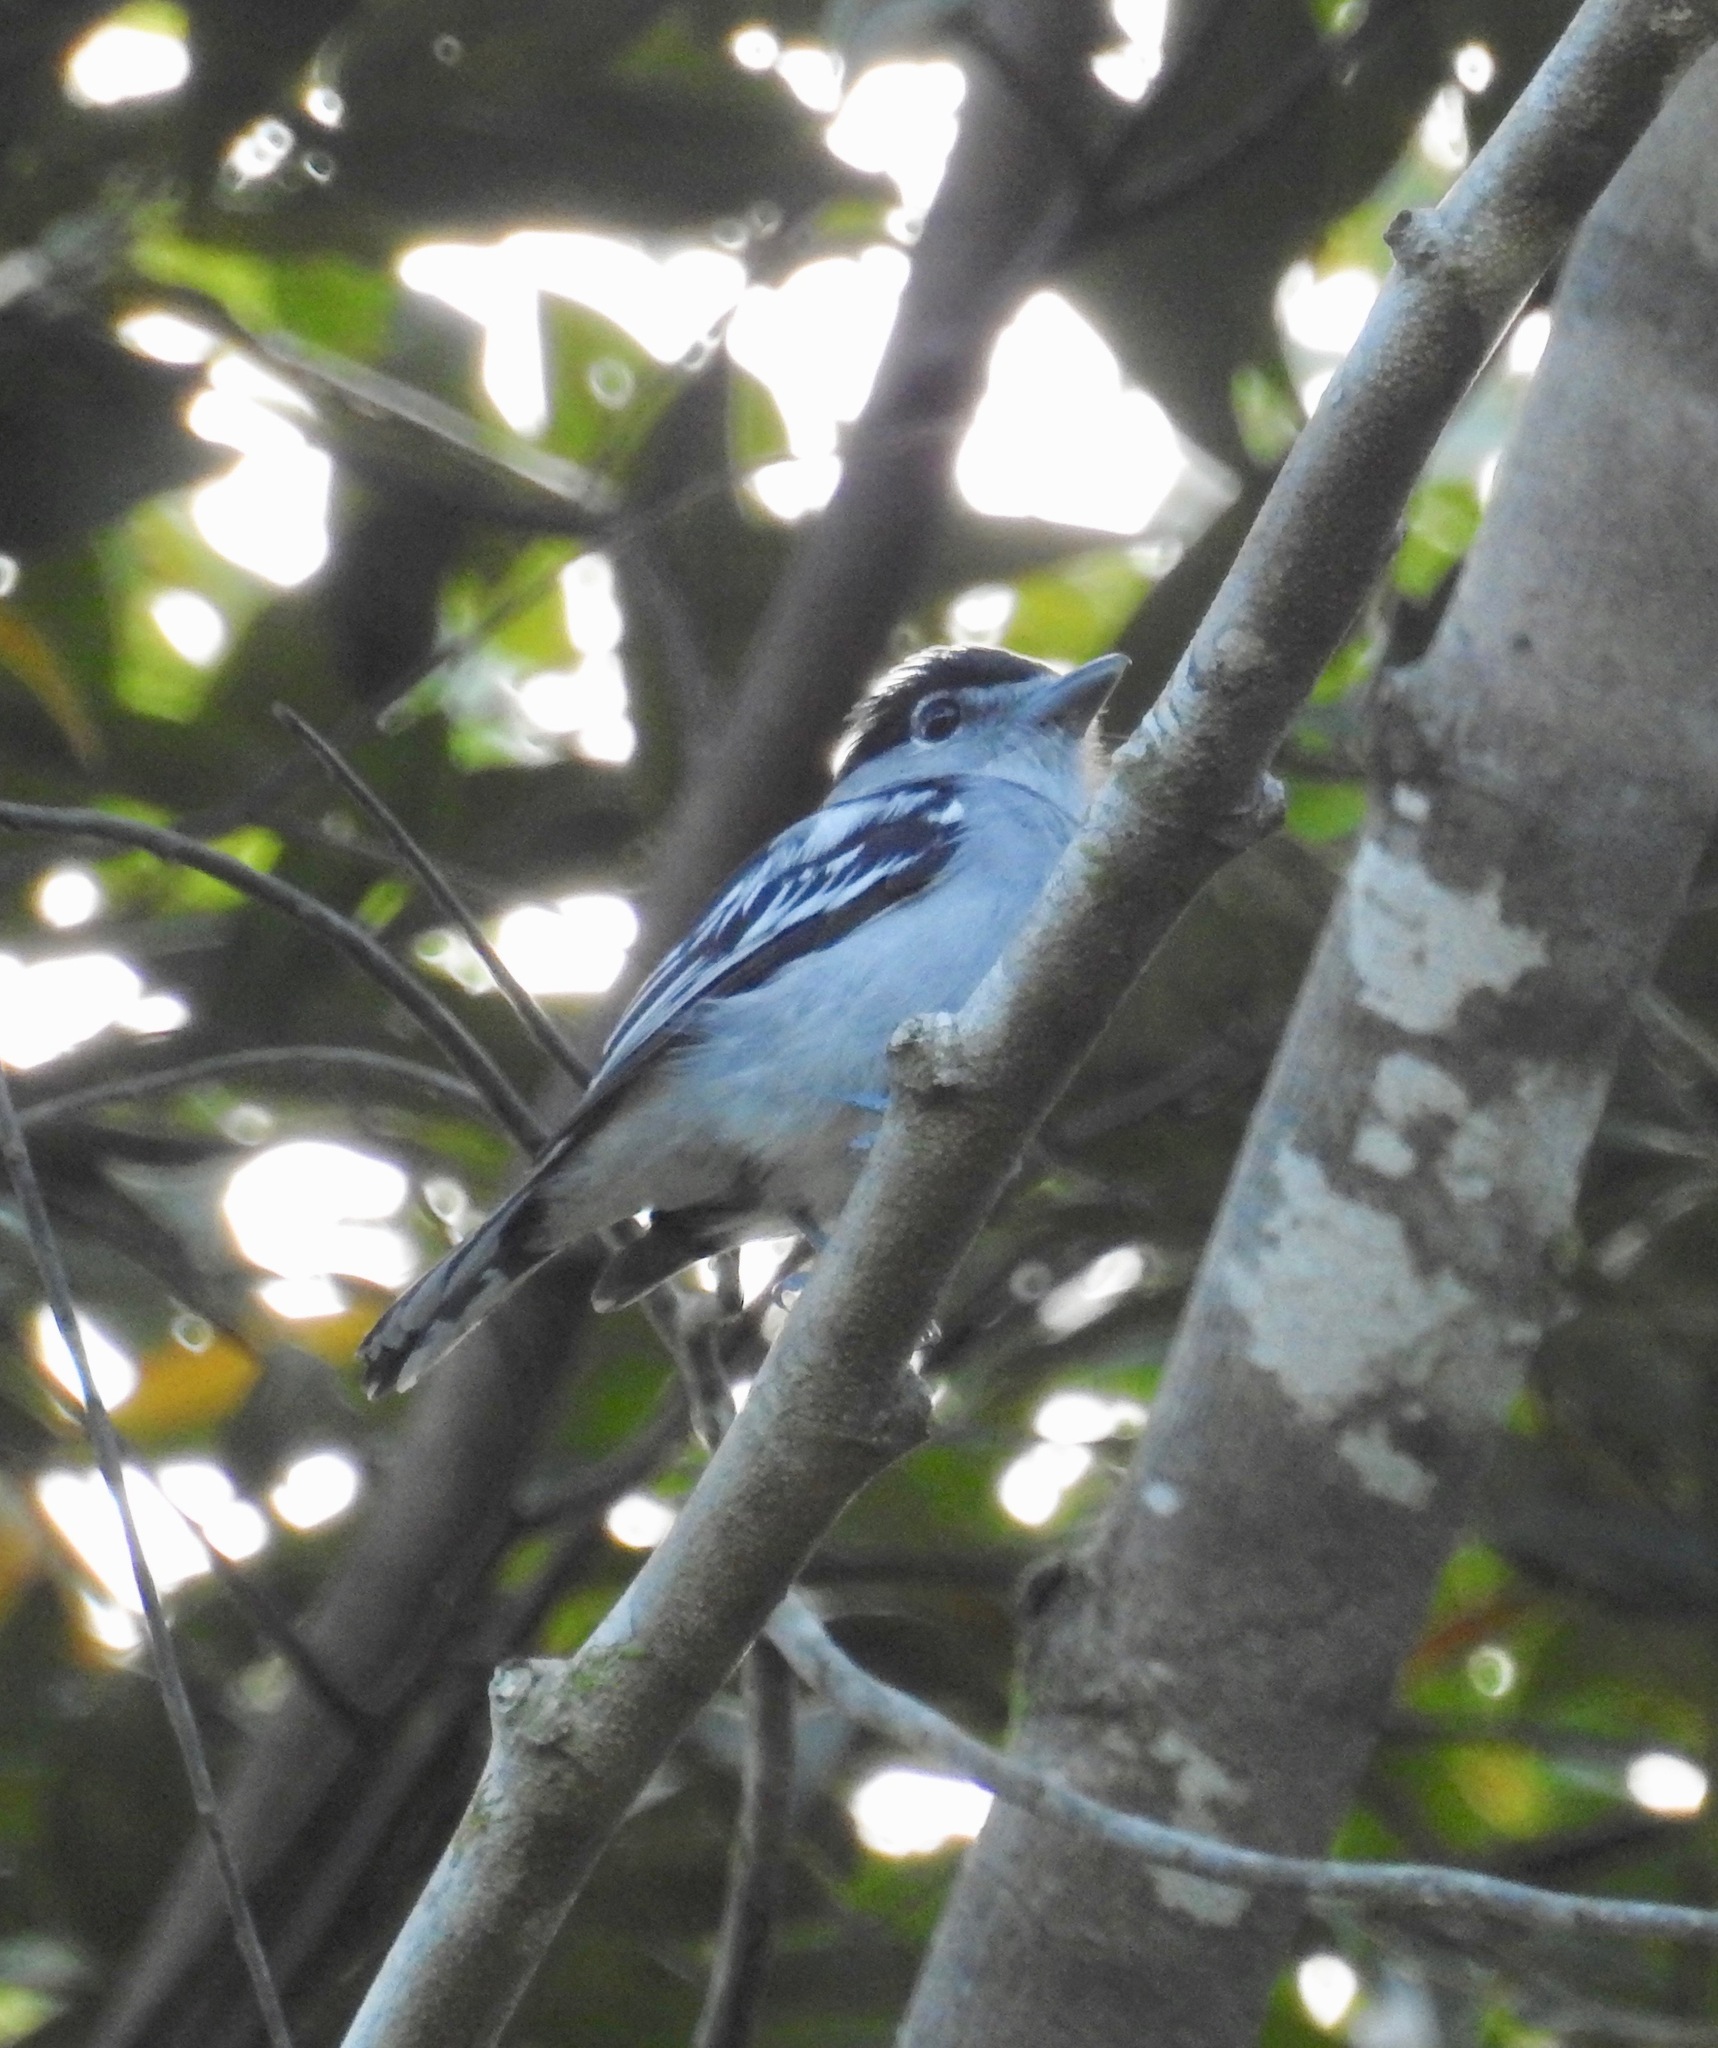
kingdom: Animalia
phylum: Chordata
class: Aves
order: Passeriformes
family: Cotingidae
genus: Pachyramphus
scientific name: Pachyramphus marginatus
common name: Black-capped becard
